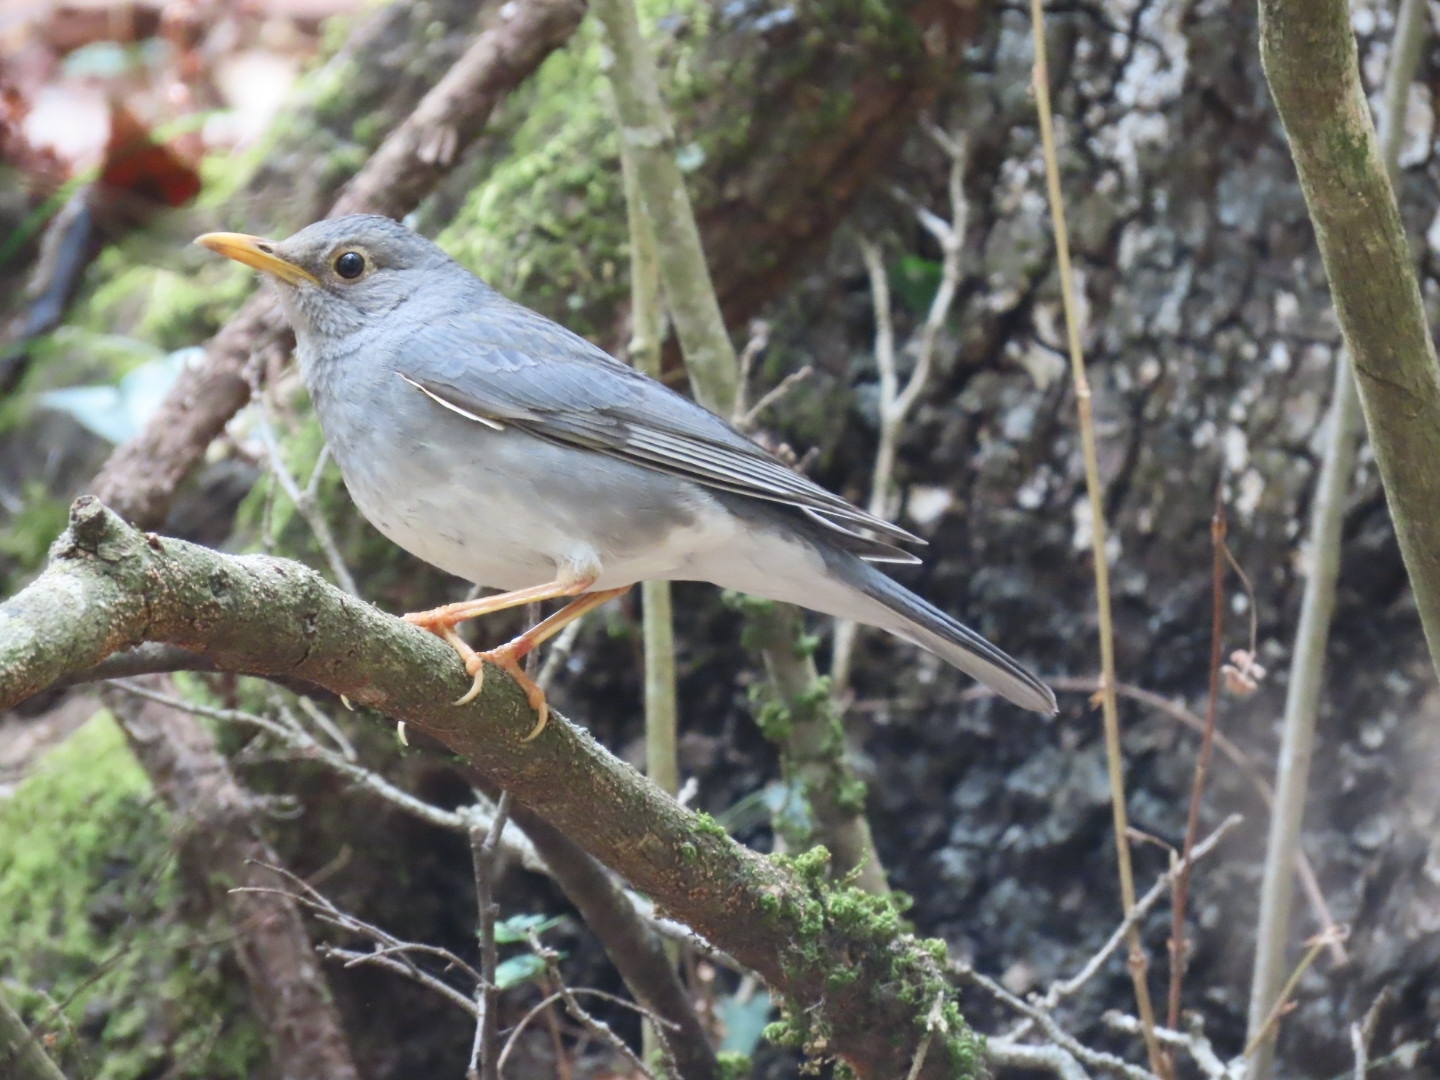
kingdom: Animalia
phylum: Chordata
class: Aves
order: Passeriformes
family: Turdidae
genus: Turdus
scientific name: Turdus unicolor
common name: Tickell's thrush
